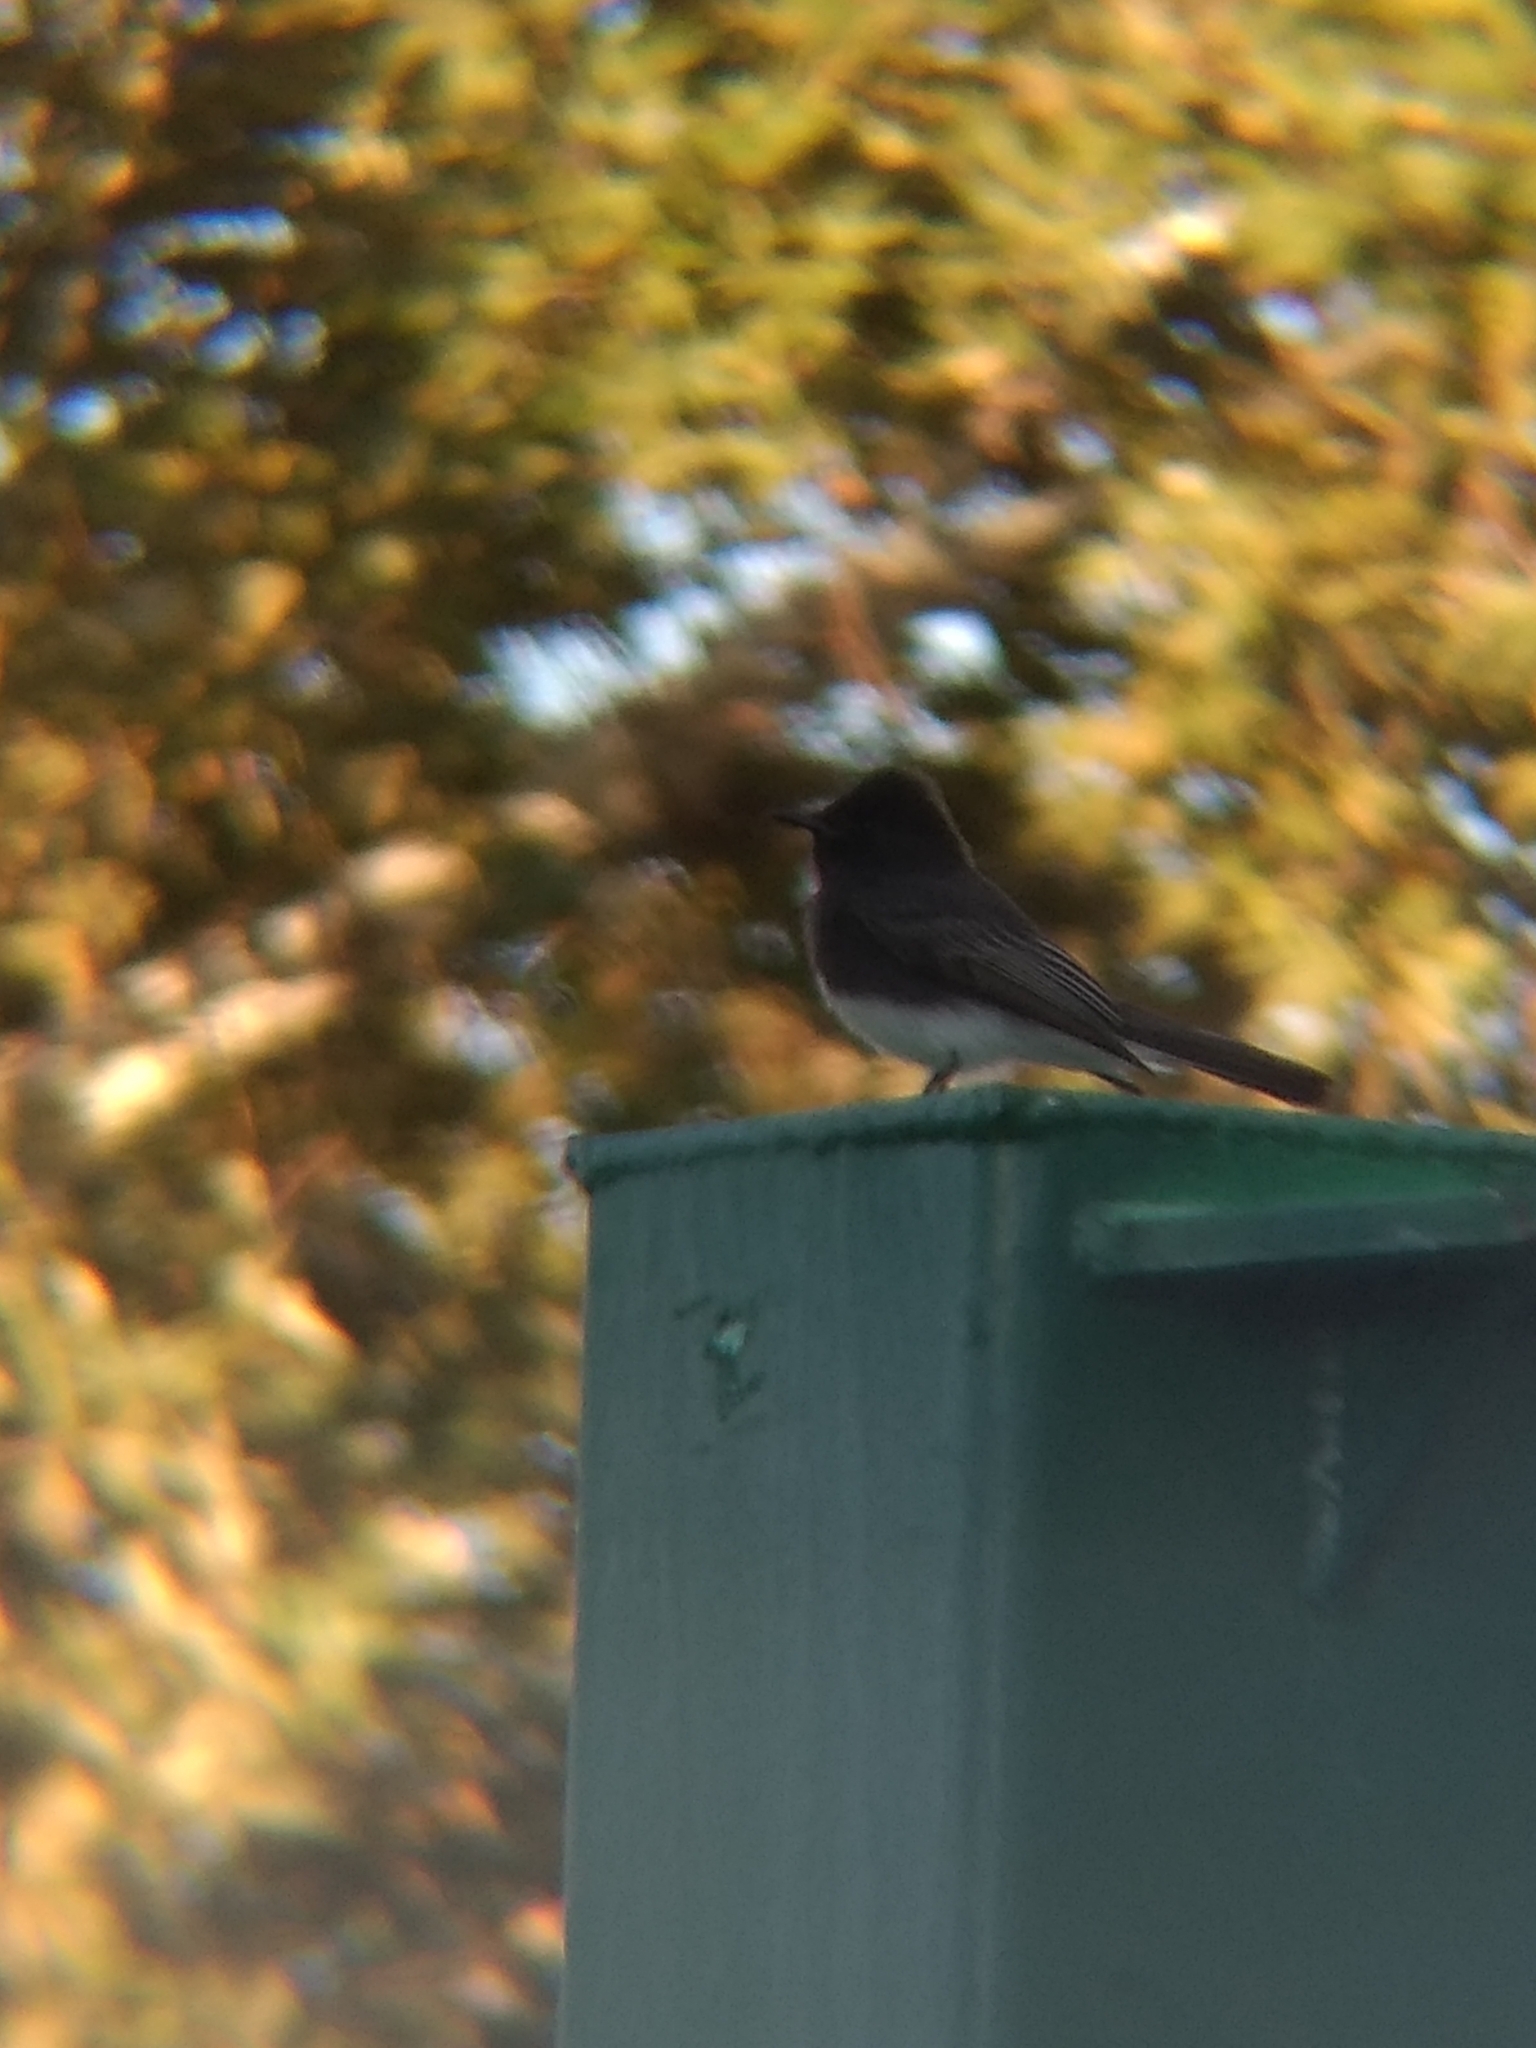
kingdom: Animalia
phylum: Chordata
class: Aves
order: Passeriformes
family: Tyrannidae
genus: Sayornis
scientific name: Sayornis nigricans
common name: Black phoebe
